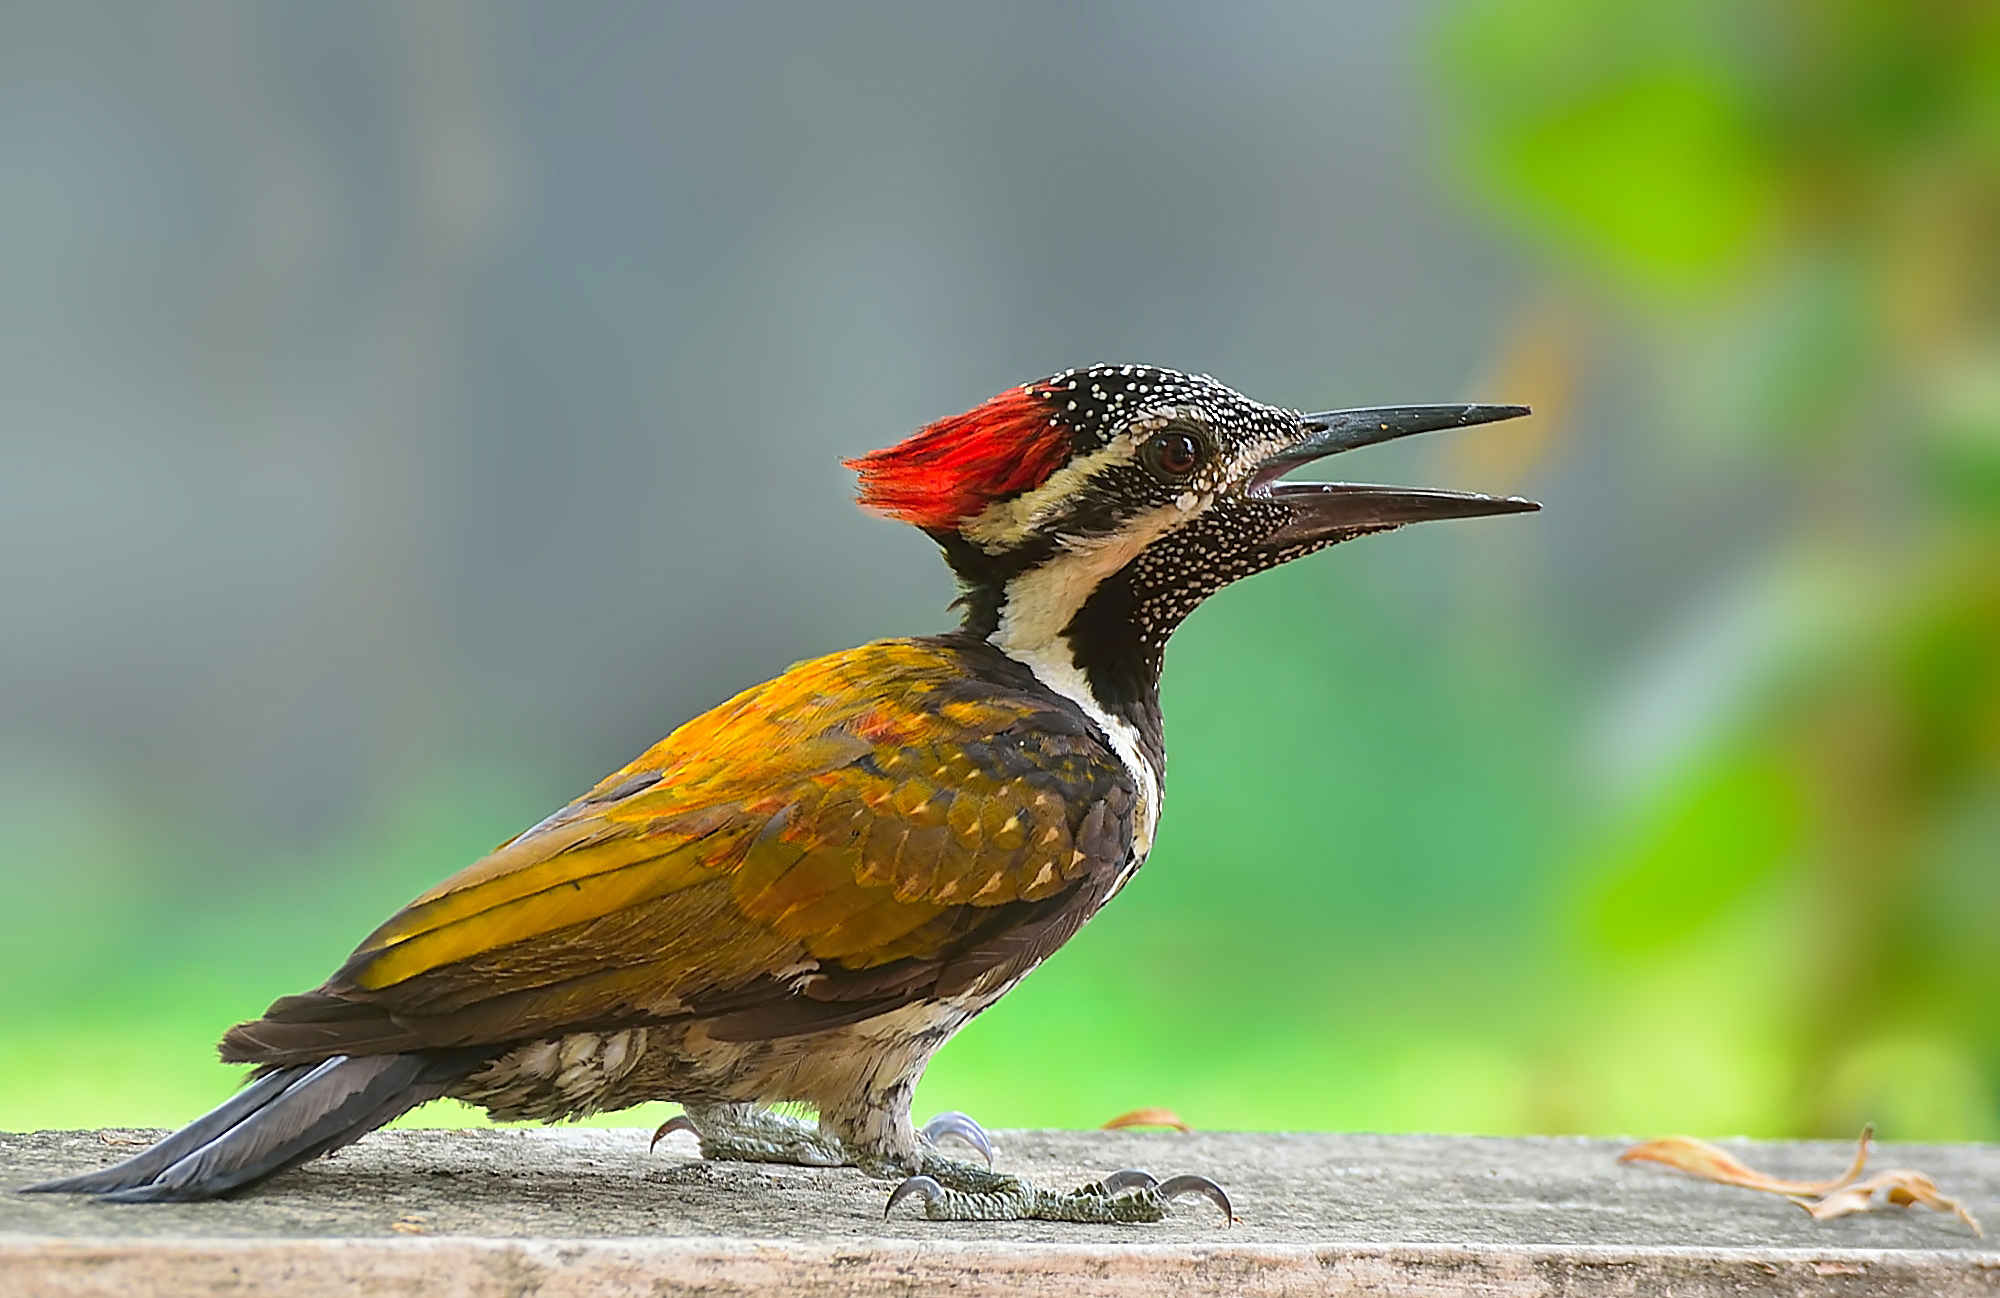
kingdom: Animalia
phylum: Chordata
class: Aves
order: Piciformes
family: Picidae
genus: Dinopium
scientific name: Dinopium benghalense
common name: Black-rumped flameback
